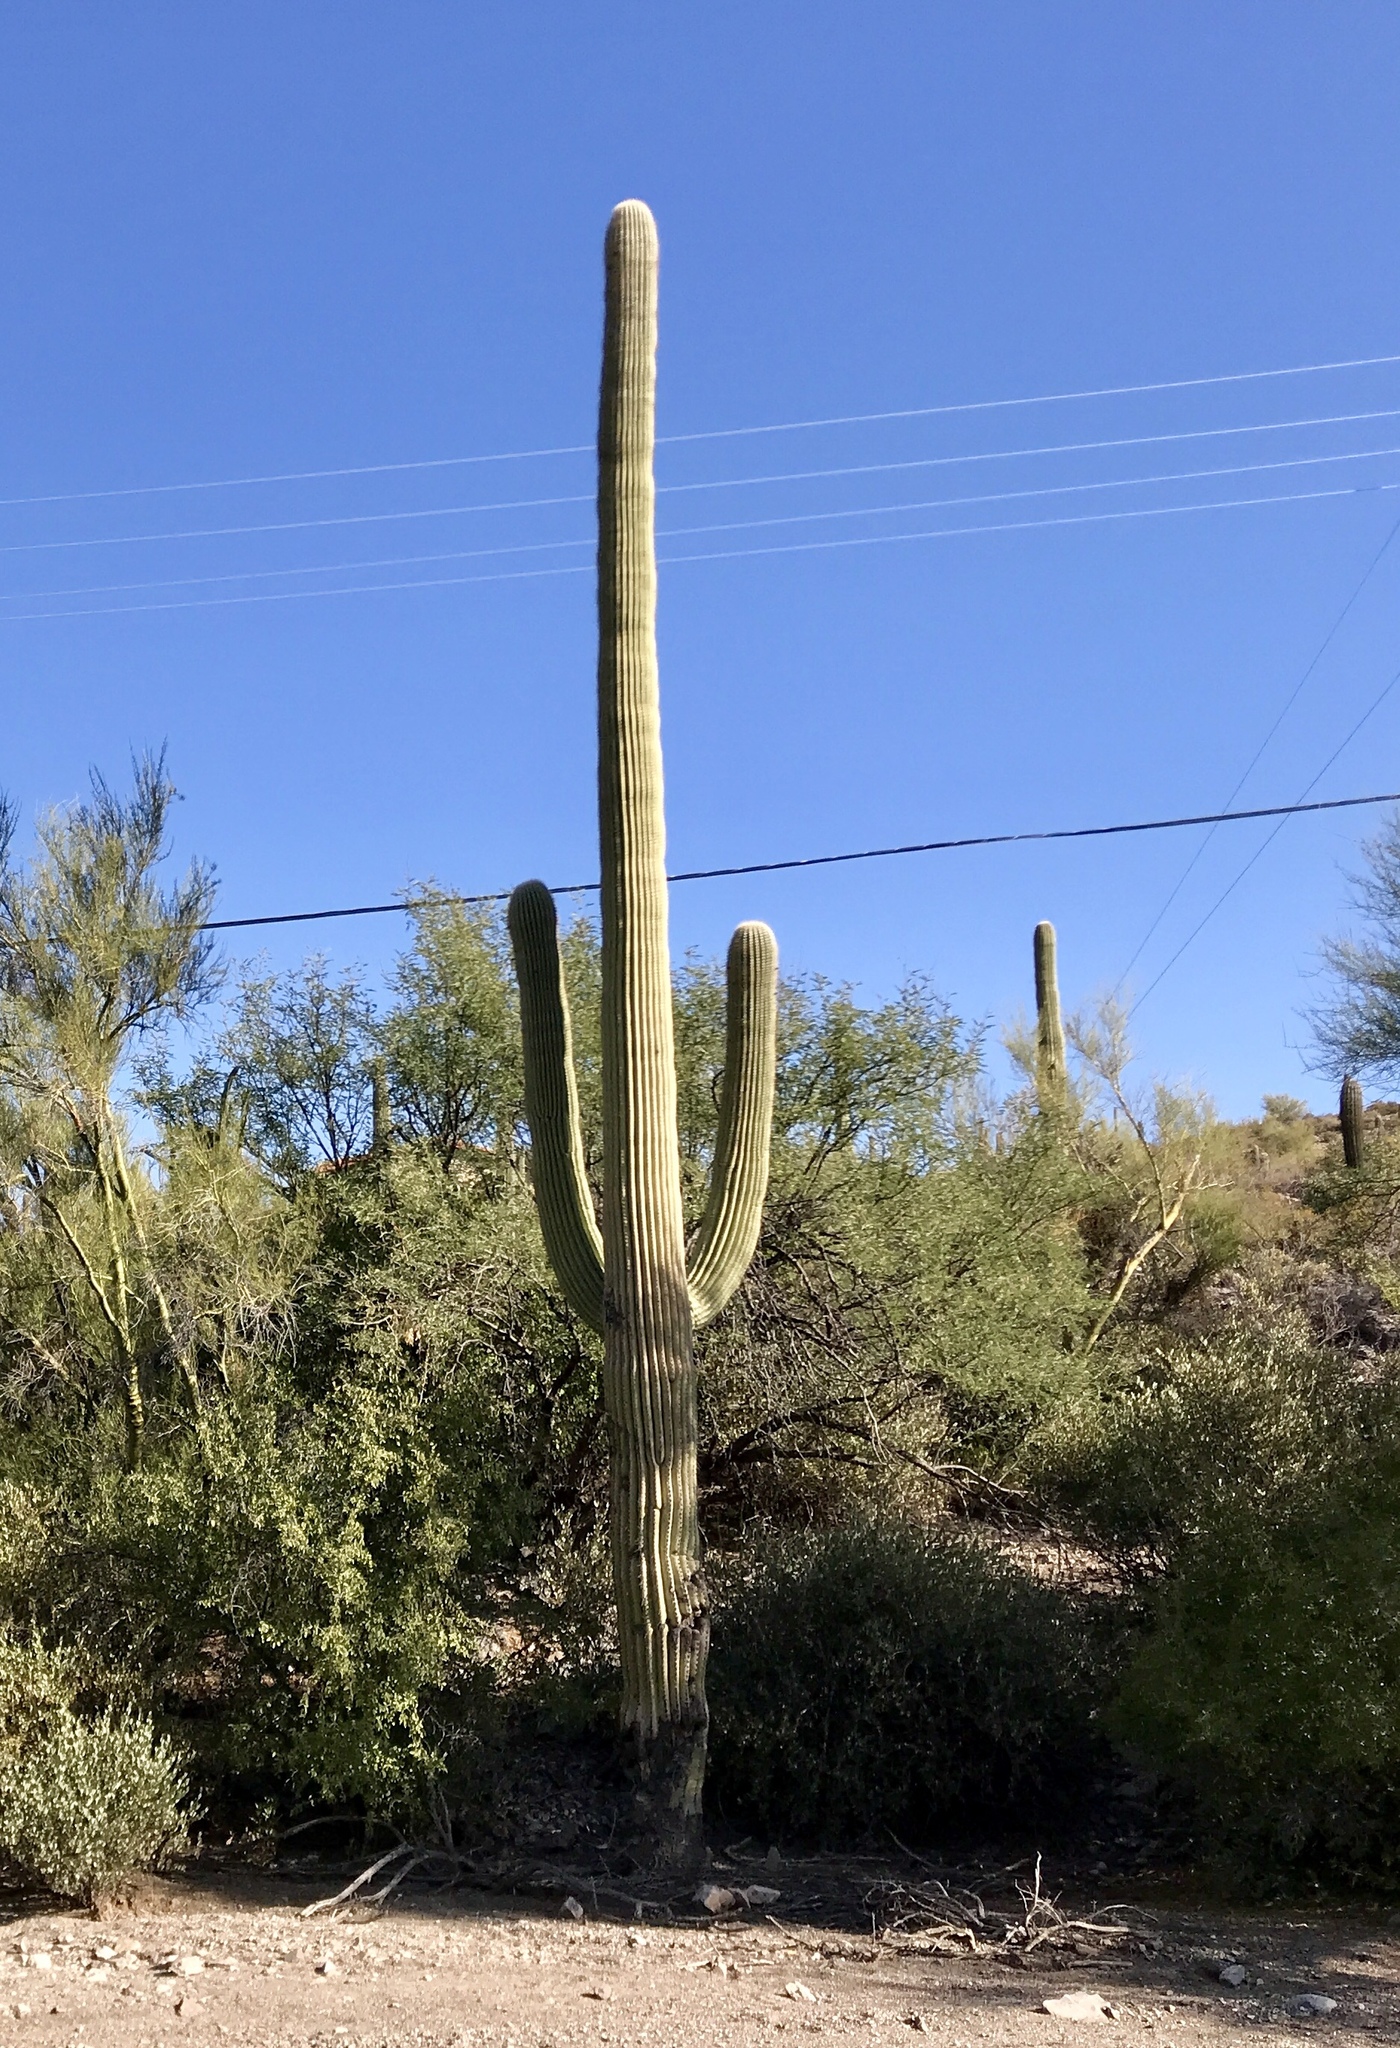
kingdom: Plantae
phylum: Tracheophyta
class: Magnoliopsida
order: Caryophyllales
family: Cactaceae
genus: Carnegiea
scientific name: Carnegiea gigantea
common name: Saguaro
